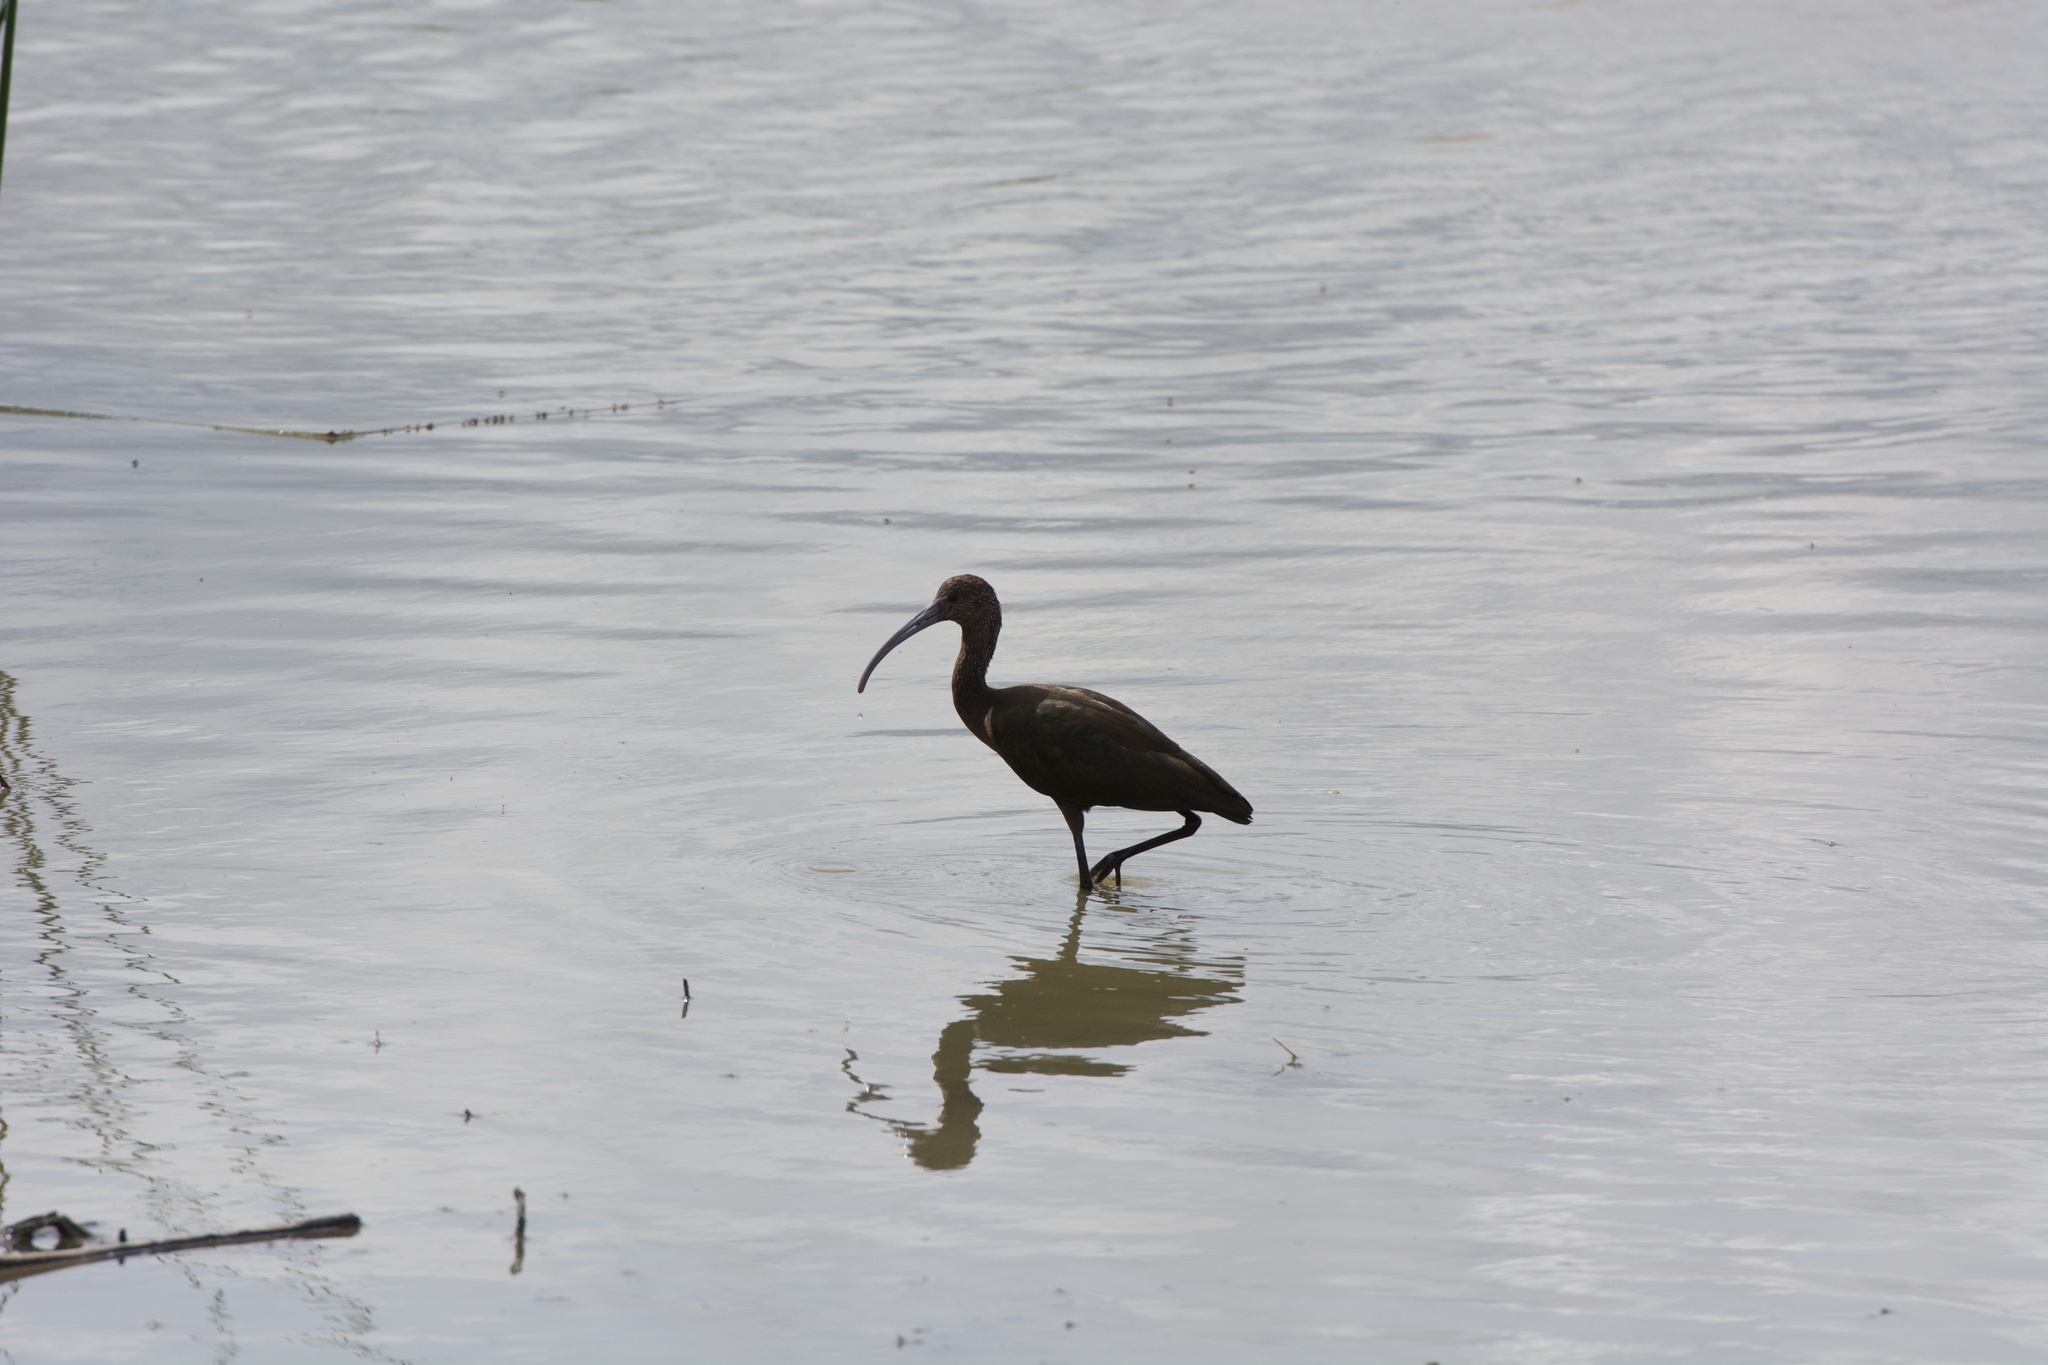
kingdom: Animalia
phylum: Chordata
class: Aves
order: Pelecaniformes
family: Threskiornithidae
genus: Plegadis
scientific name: Plegadis chihi
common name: White-faced ibis
